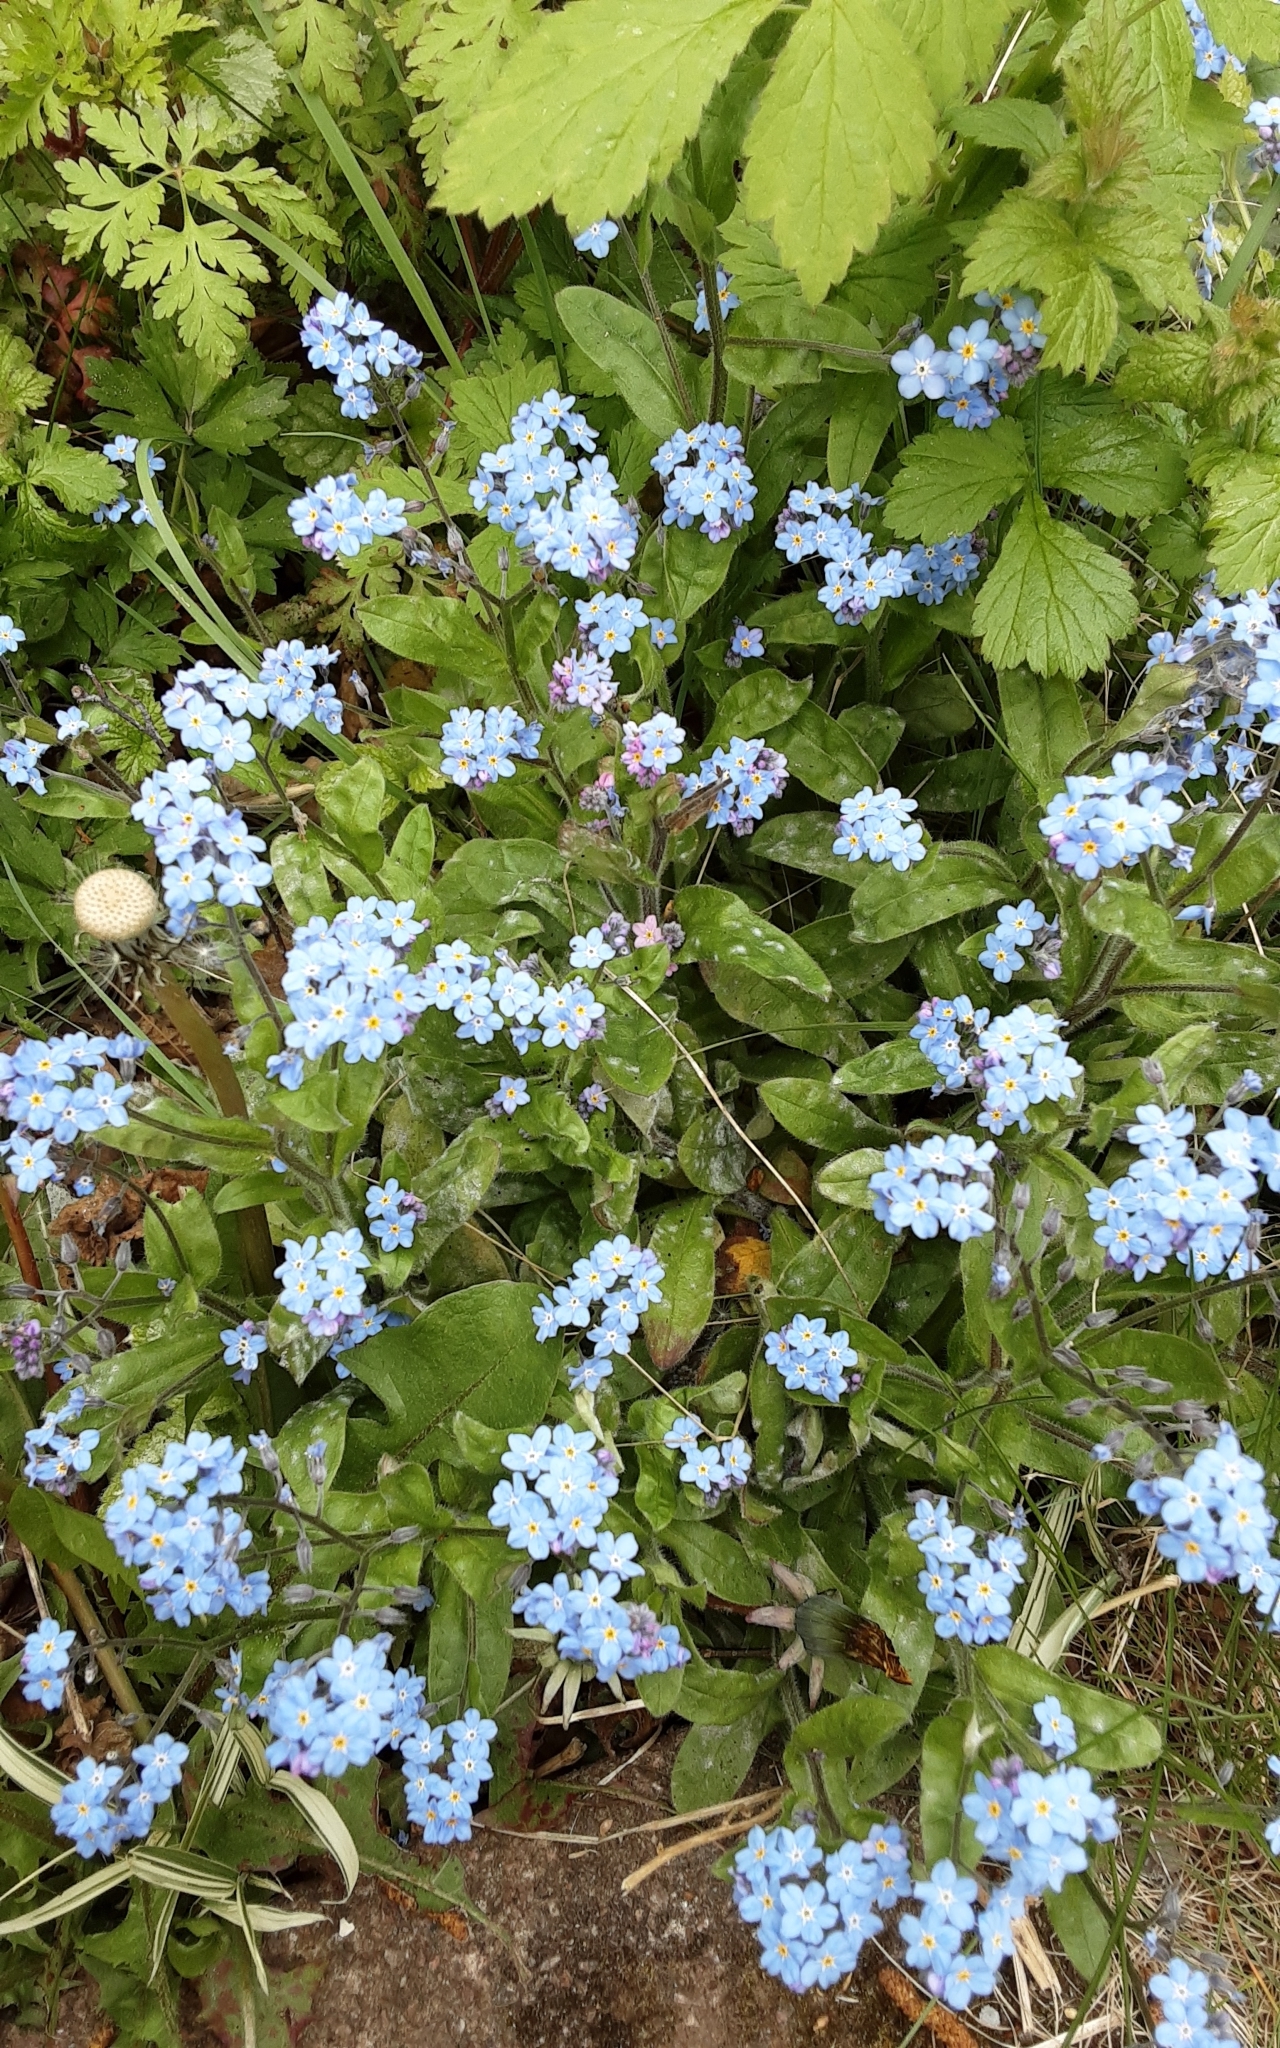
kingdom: Plantae
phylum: Tracheophyta
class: Magnoliopsida
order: Boraginales
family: Boraginaceae
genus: Myosotis
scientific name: Myosotis sylvatica
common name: Wood forget-me-not
